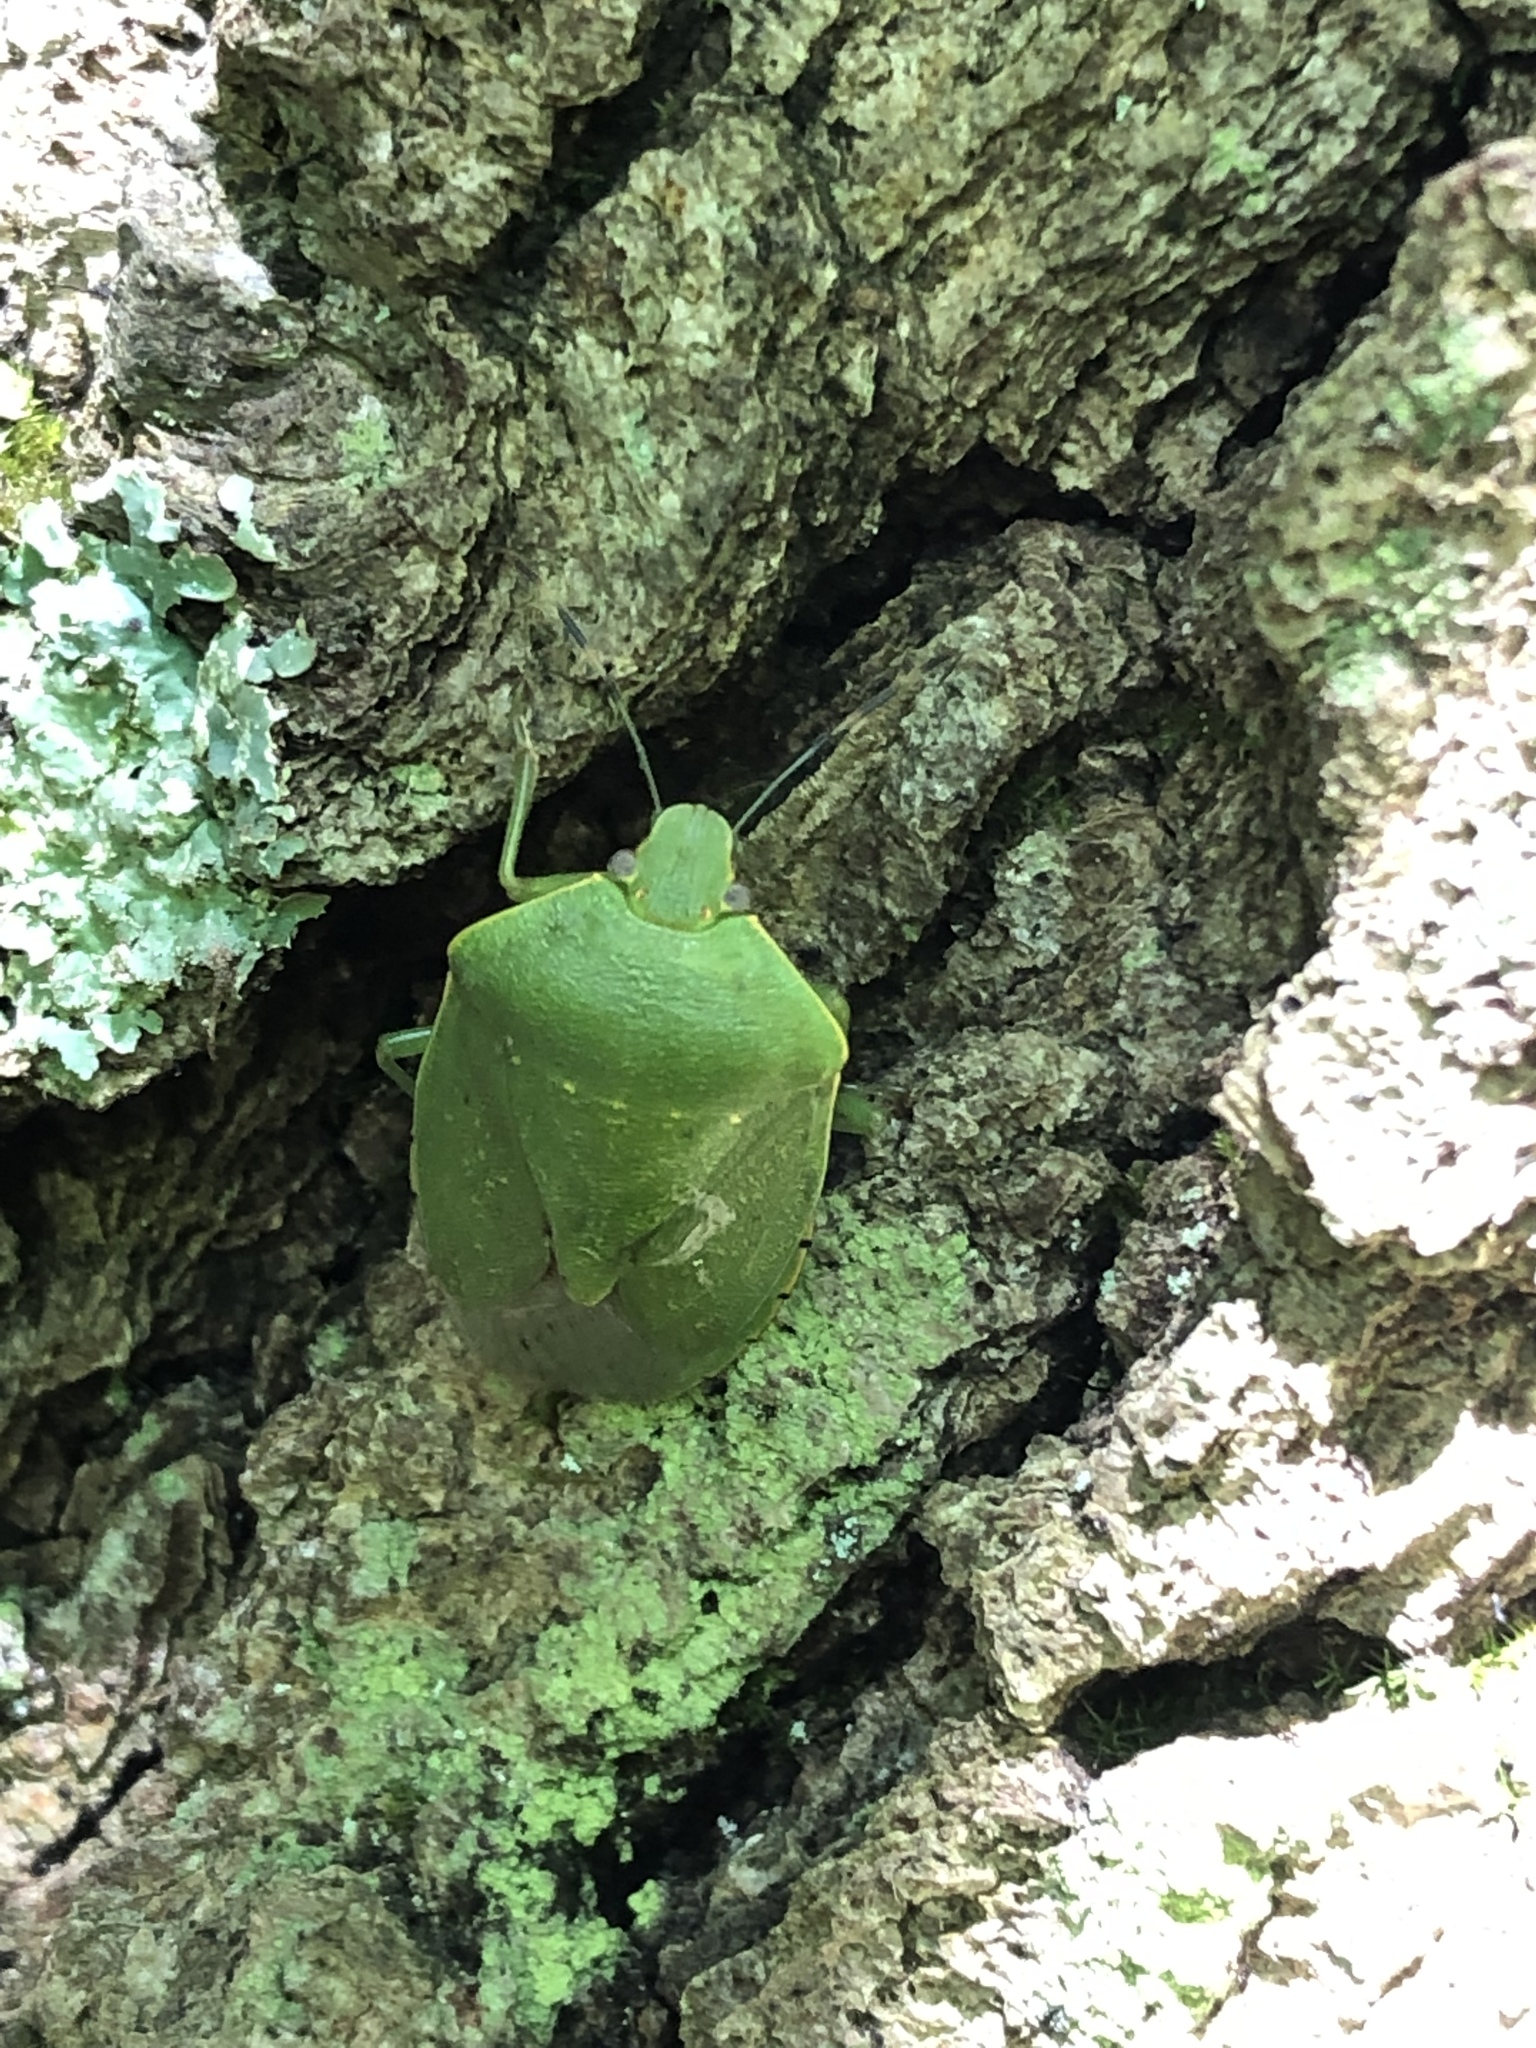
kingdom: Animalia
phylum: Arthropoda
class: Insecta
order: Hemiptera
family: Pentatomidae
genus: Chinavia
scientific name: Chinavia hilaris
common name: Green stink bug
